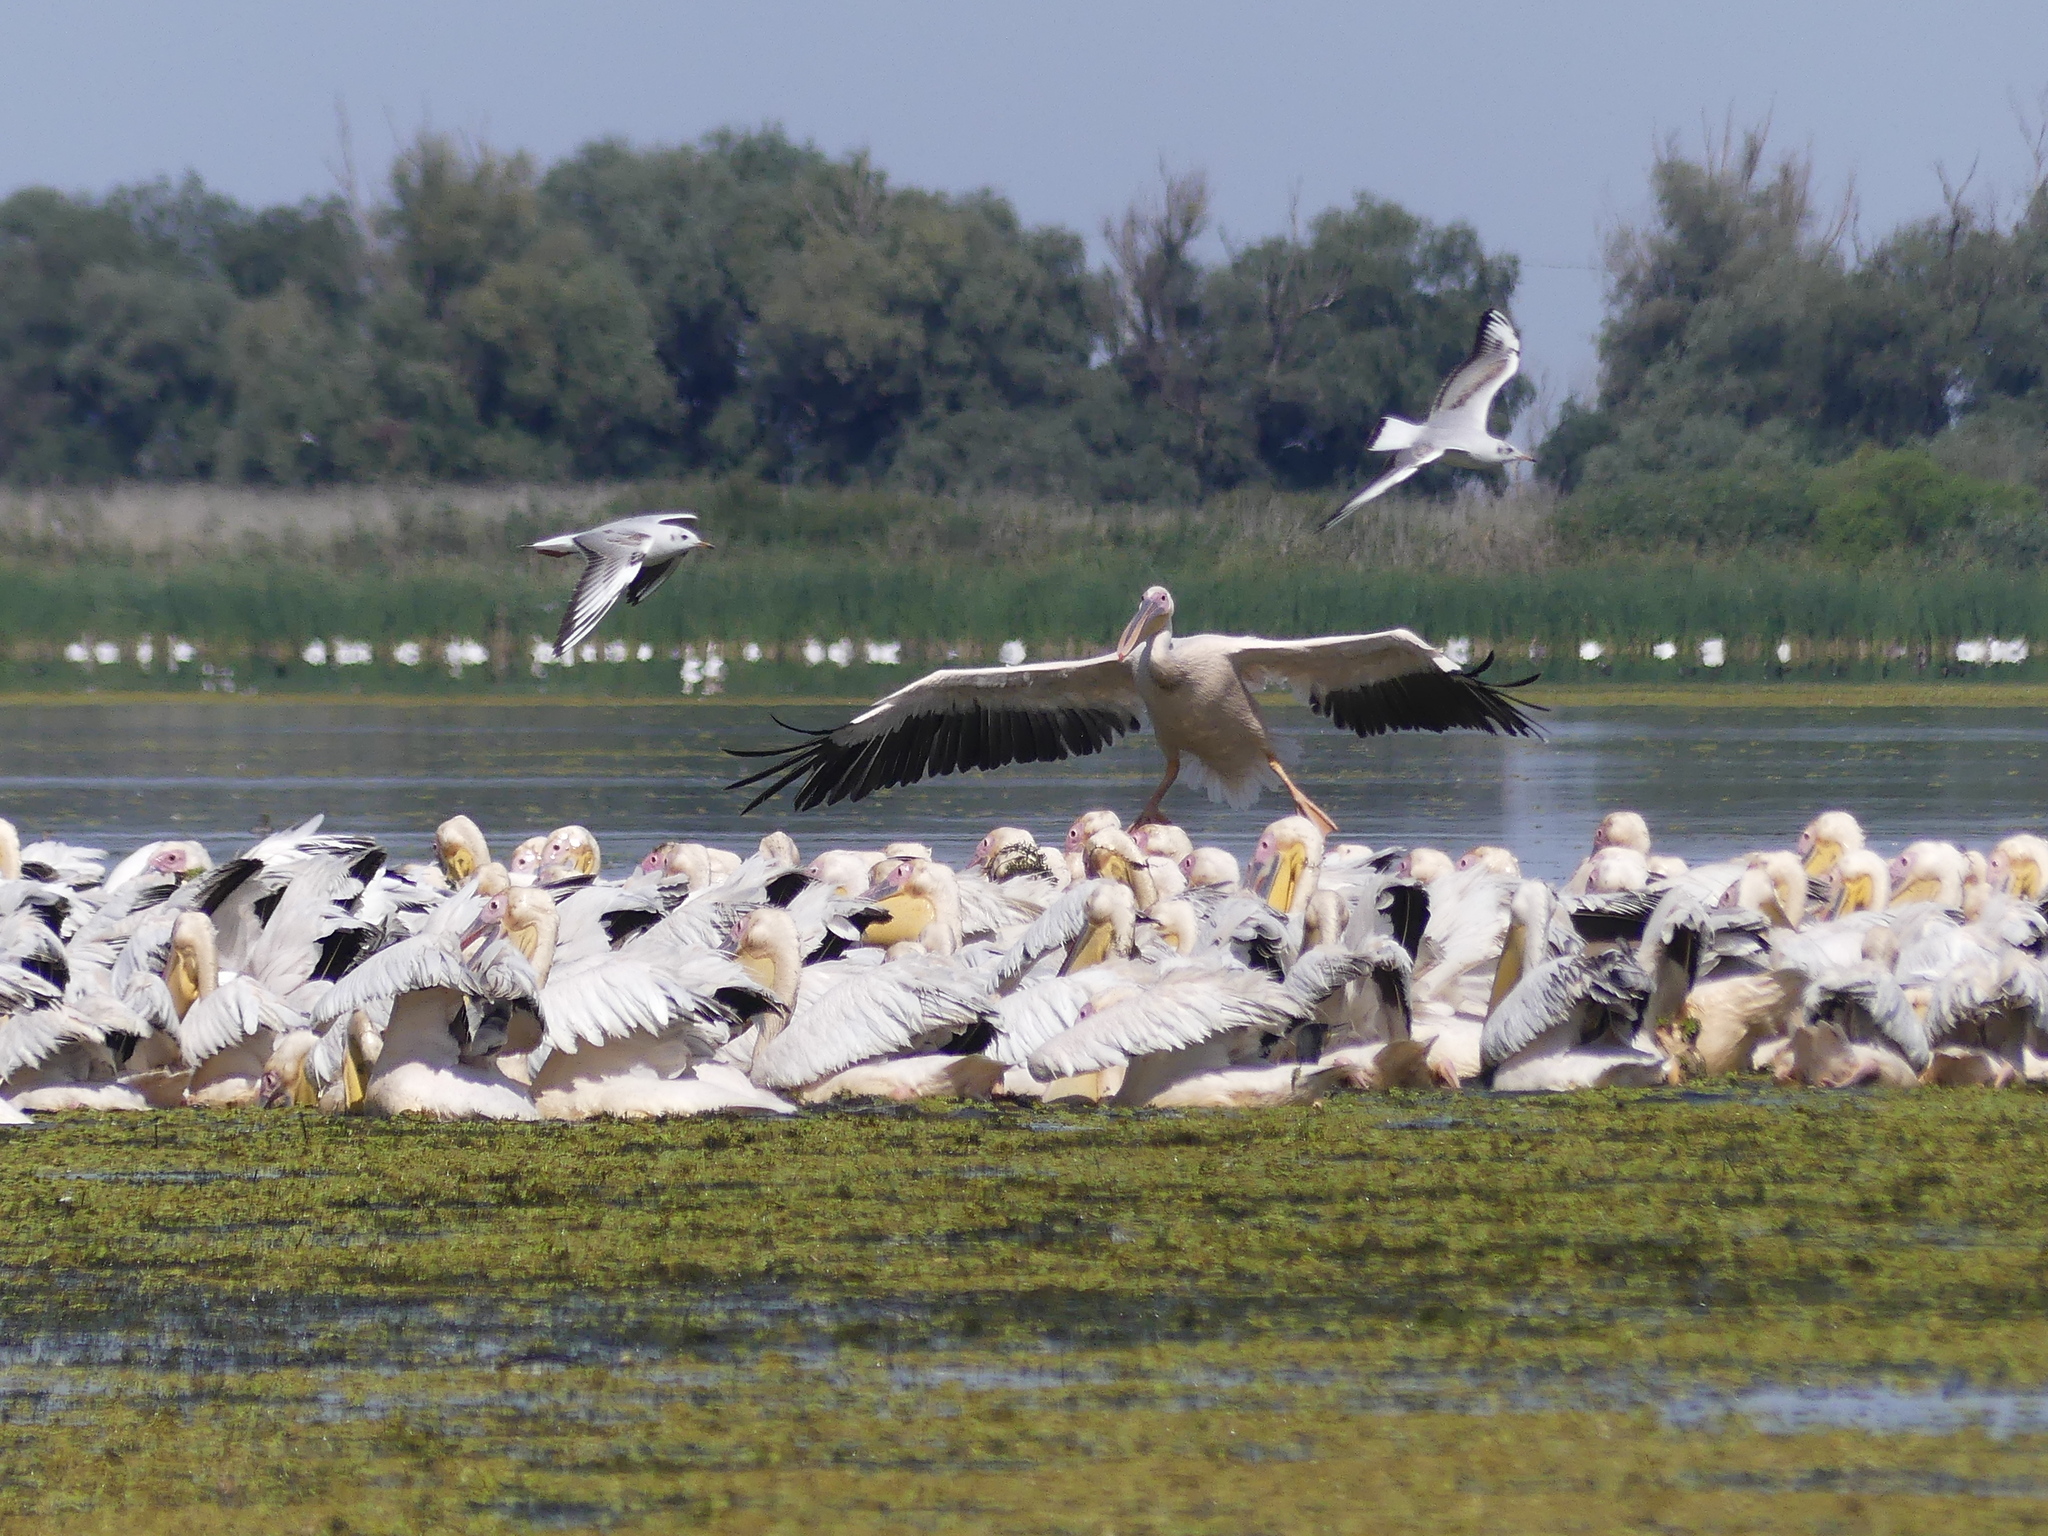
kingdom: Animalia
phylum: Chordata
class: Aves
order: Charadriiformes
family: Laridae
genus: Chroicocephalus
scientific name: Chroicocephalus ridibundus
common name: Black-headed gull
